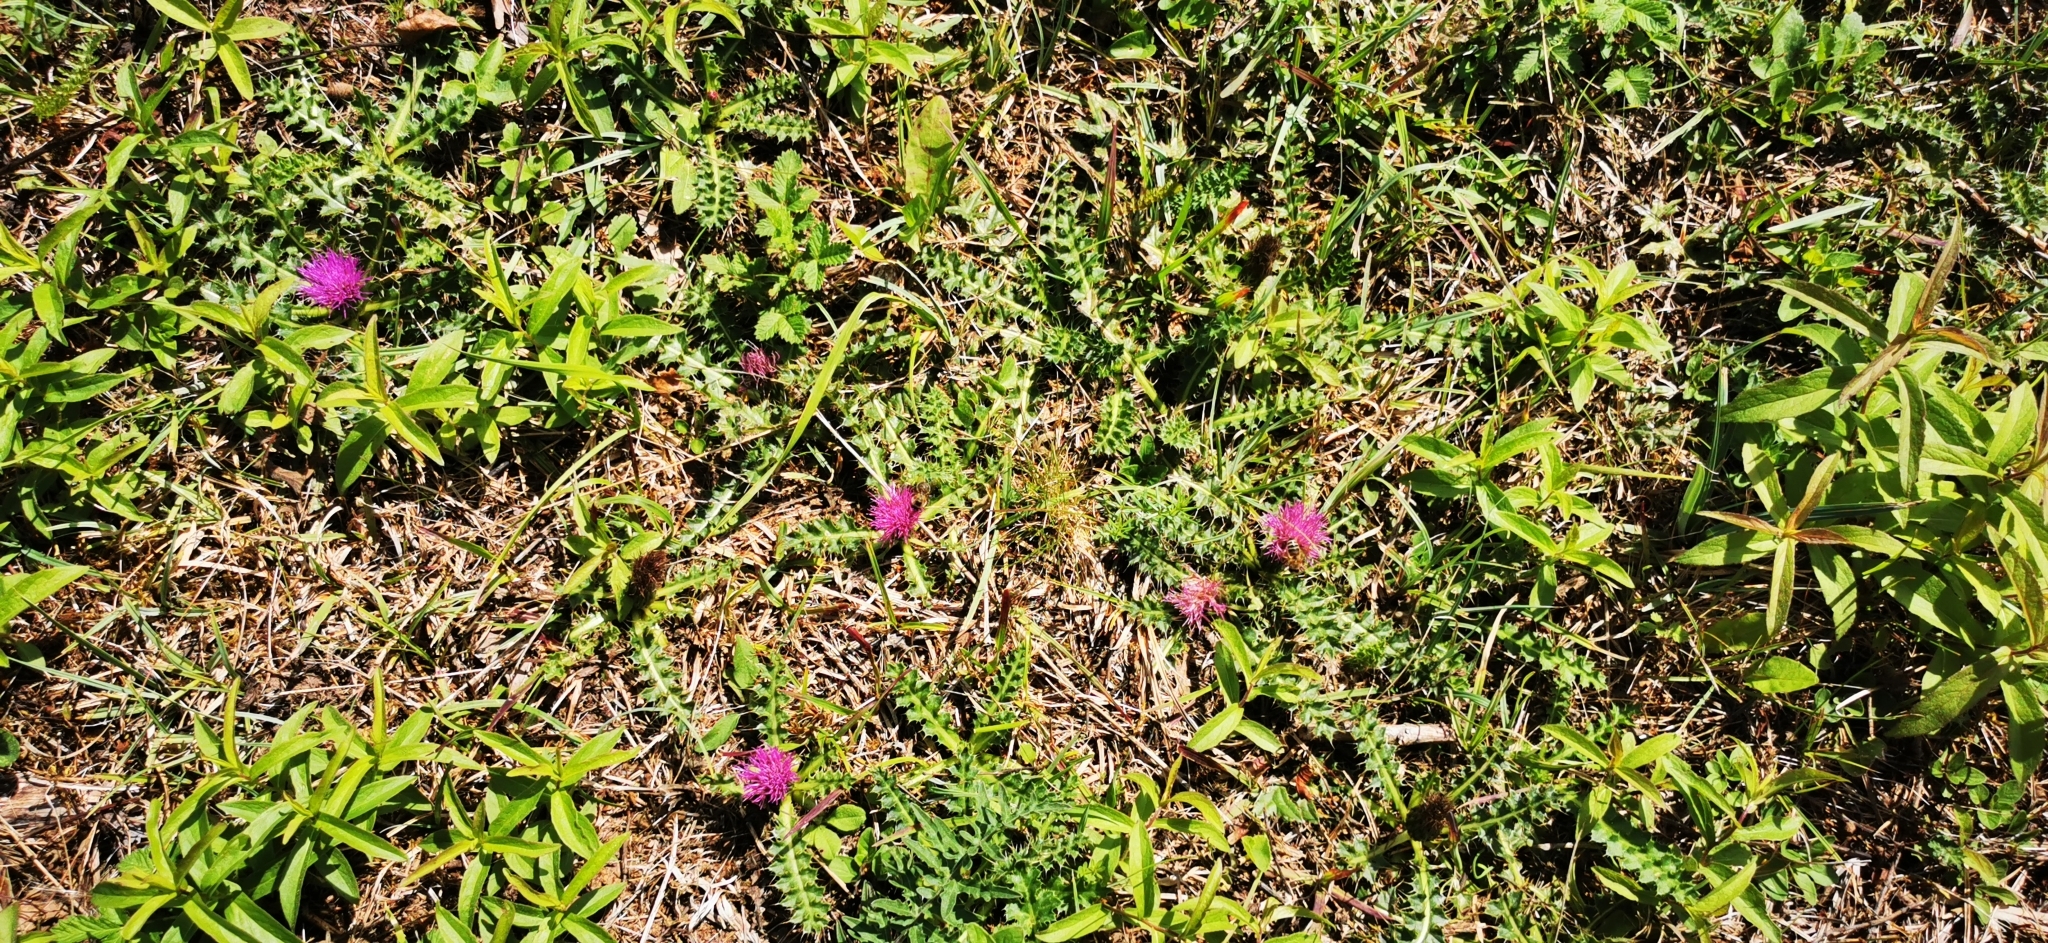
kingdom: Plantae
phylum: Tracheophyta
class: Magnoliopsida
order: Asterales
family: Asteraceae
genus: Cirsium
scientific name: Cirsium acaulon
